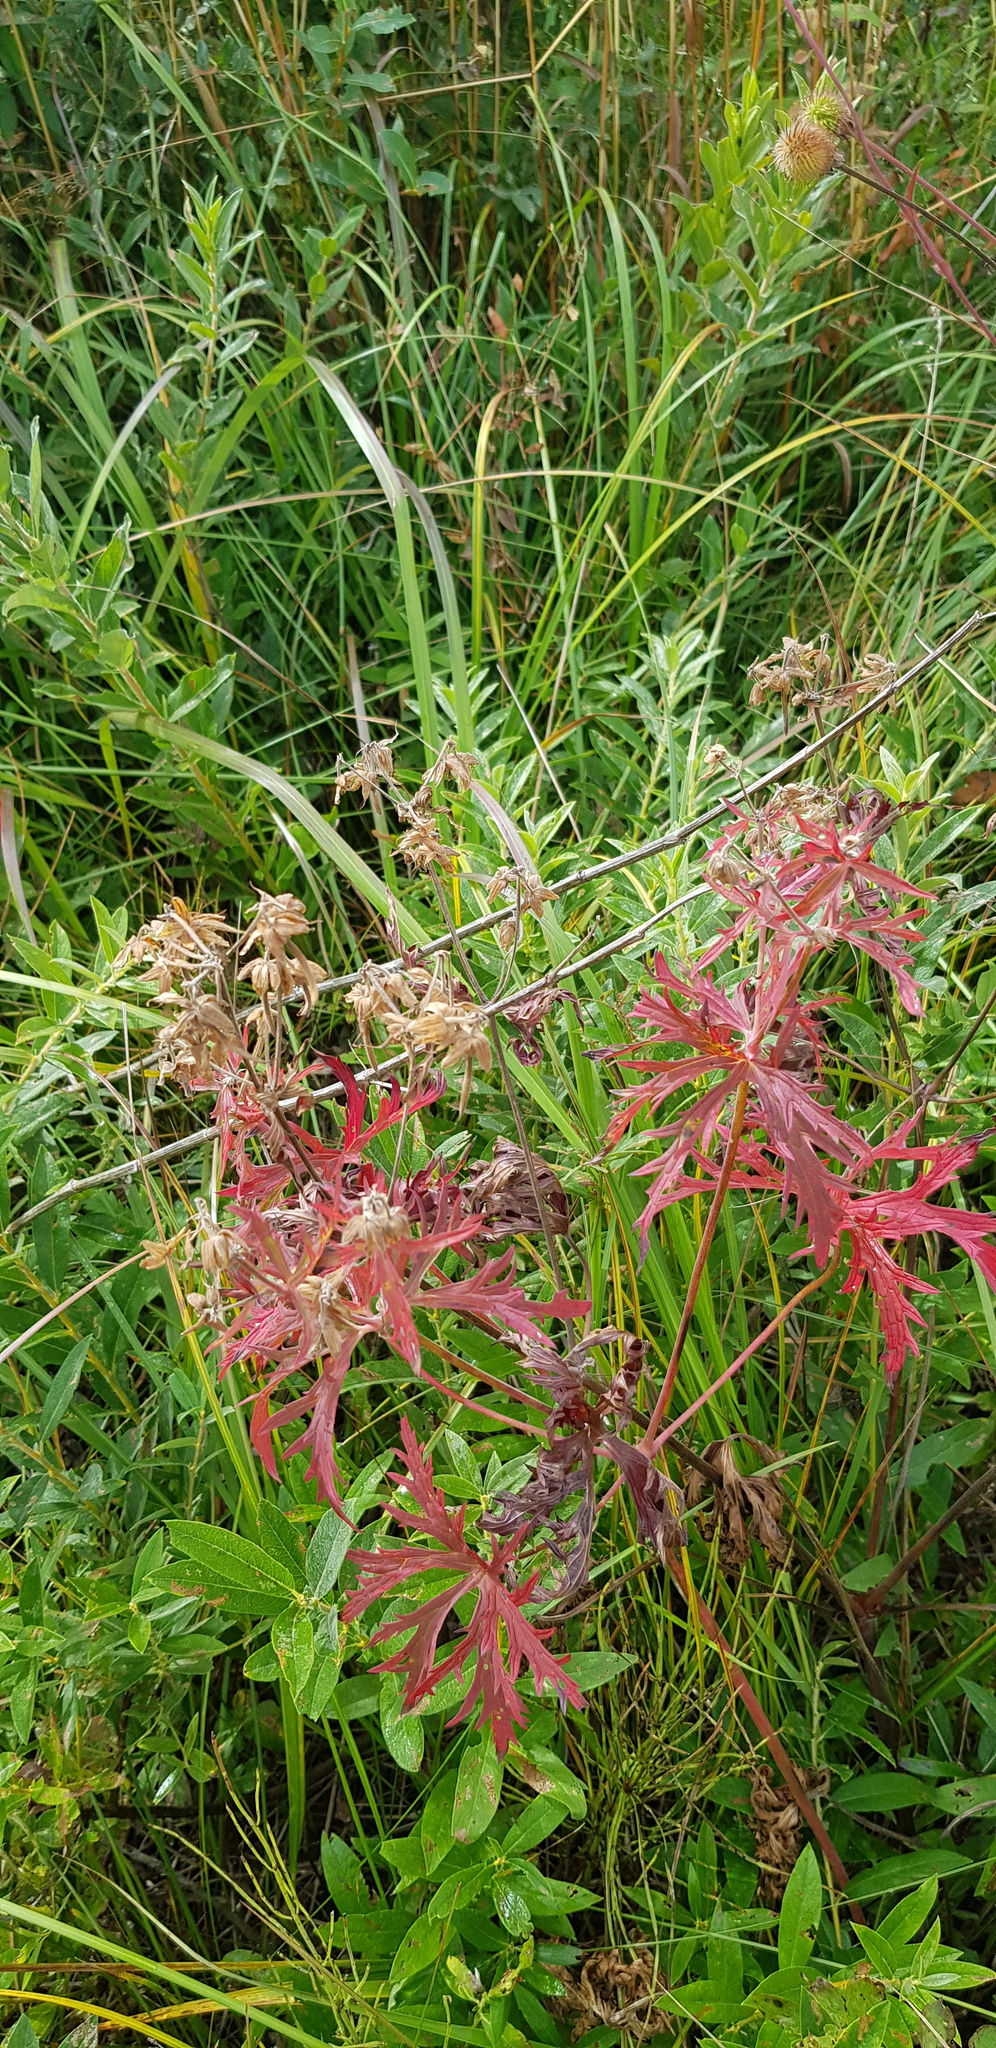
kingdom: Plantae
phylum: Tracheophyta
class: Magnoliopsida
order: Geraniales
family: Geraniaceae
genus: Geranium
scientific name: Geranium pratense
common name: Meadow crane's-bill
